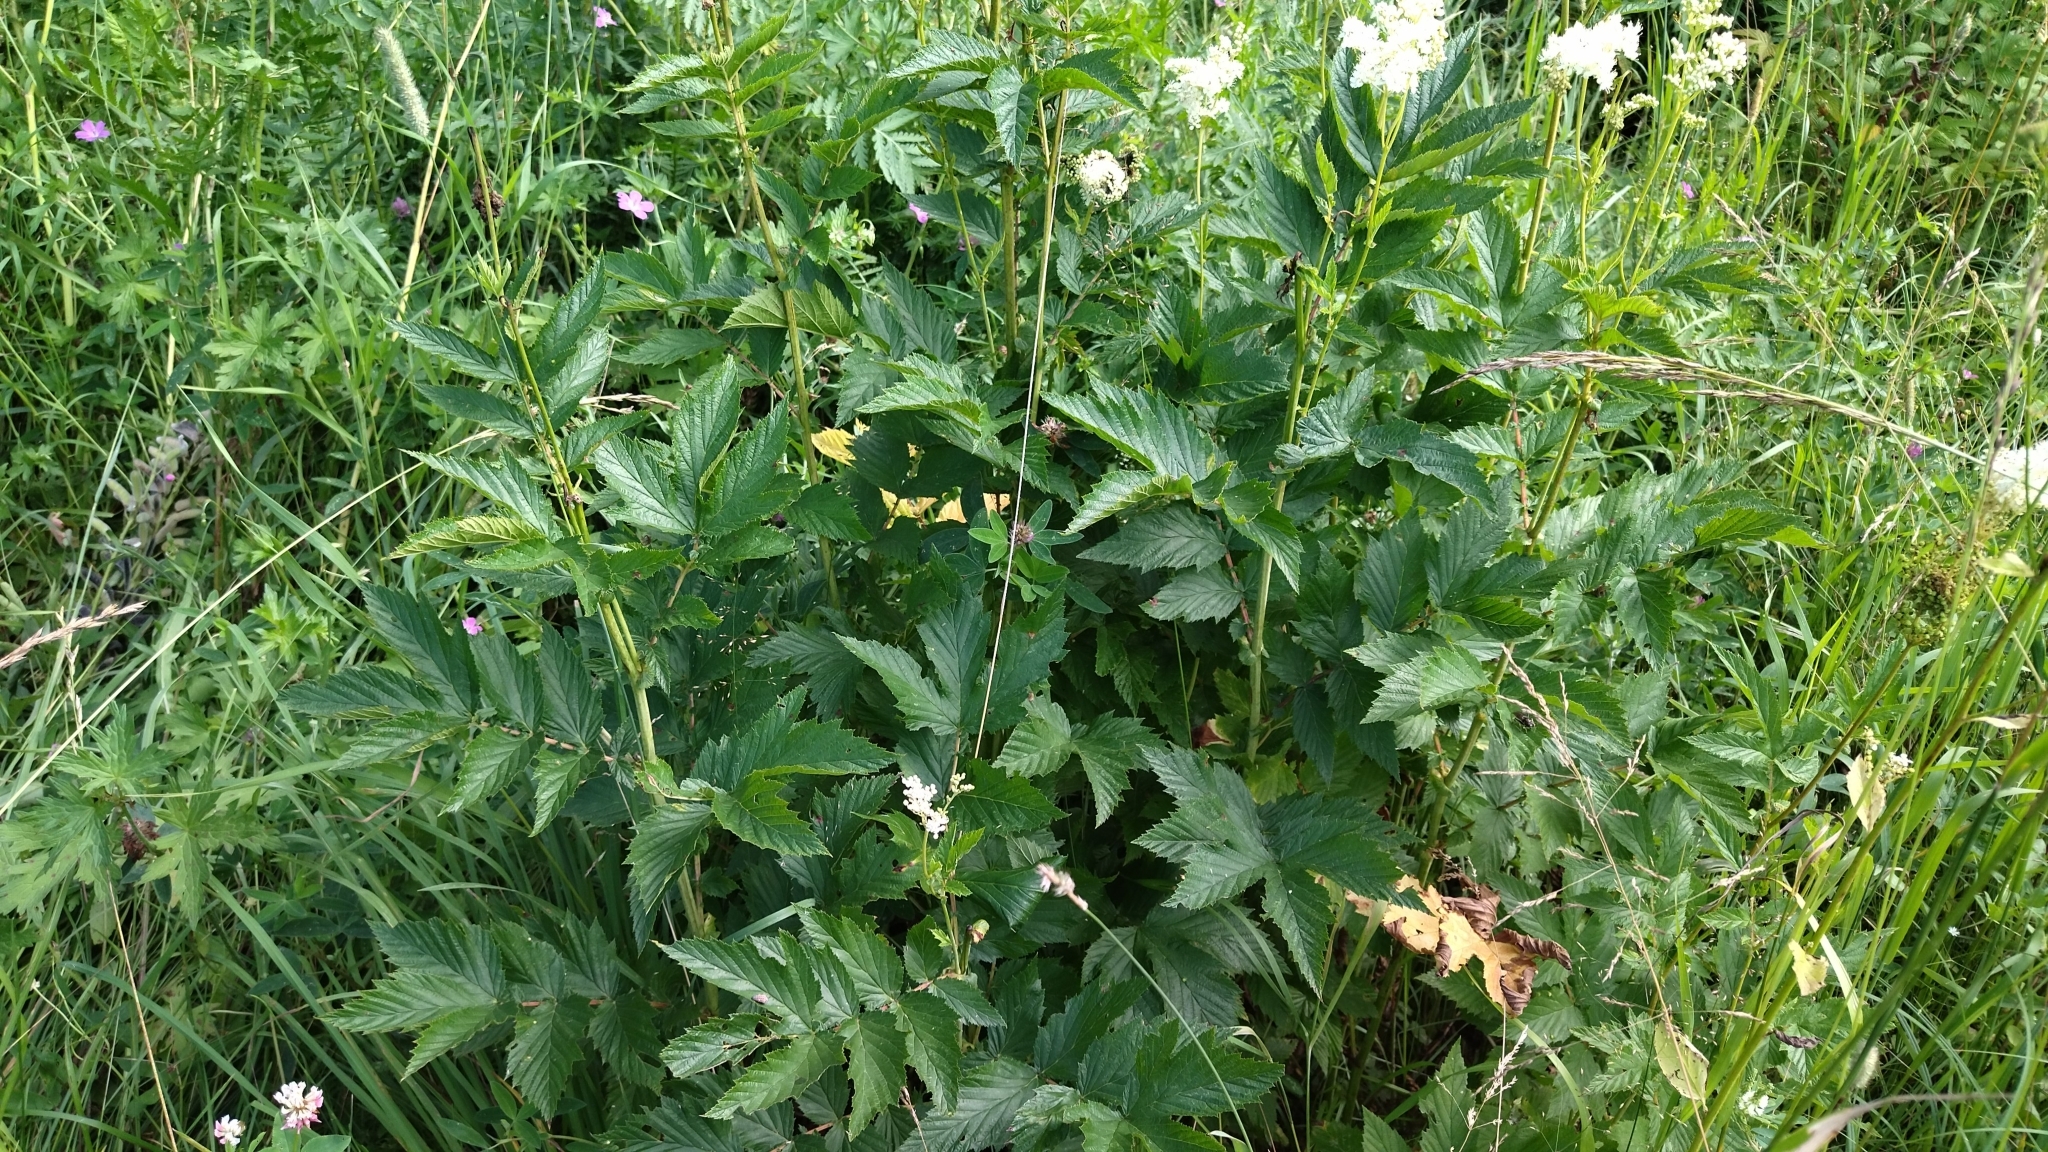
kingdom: Plantae
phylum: Tracheophyta
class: Magnoliopsida
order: Rosales
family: Rosaceae
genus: Filipendula
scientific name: Filipendula ulmaria
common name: Meadowsweet
